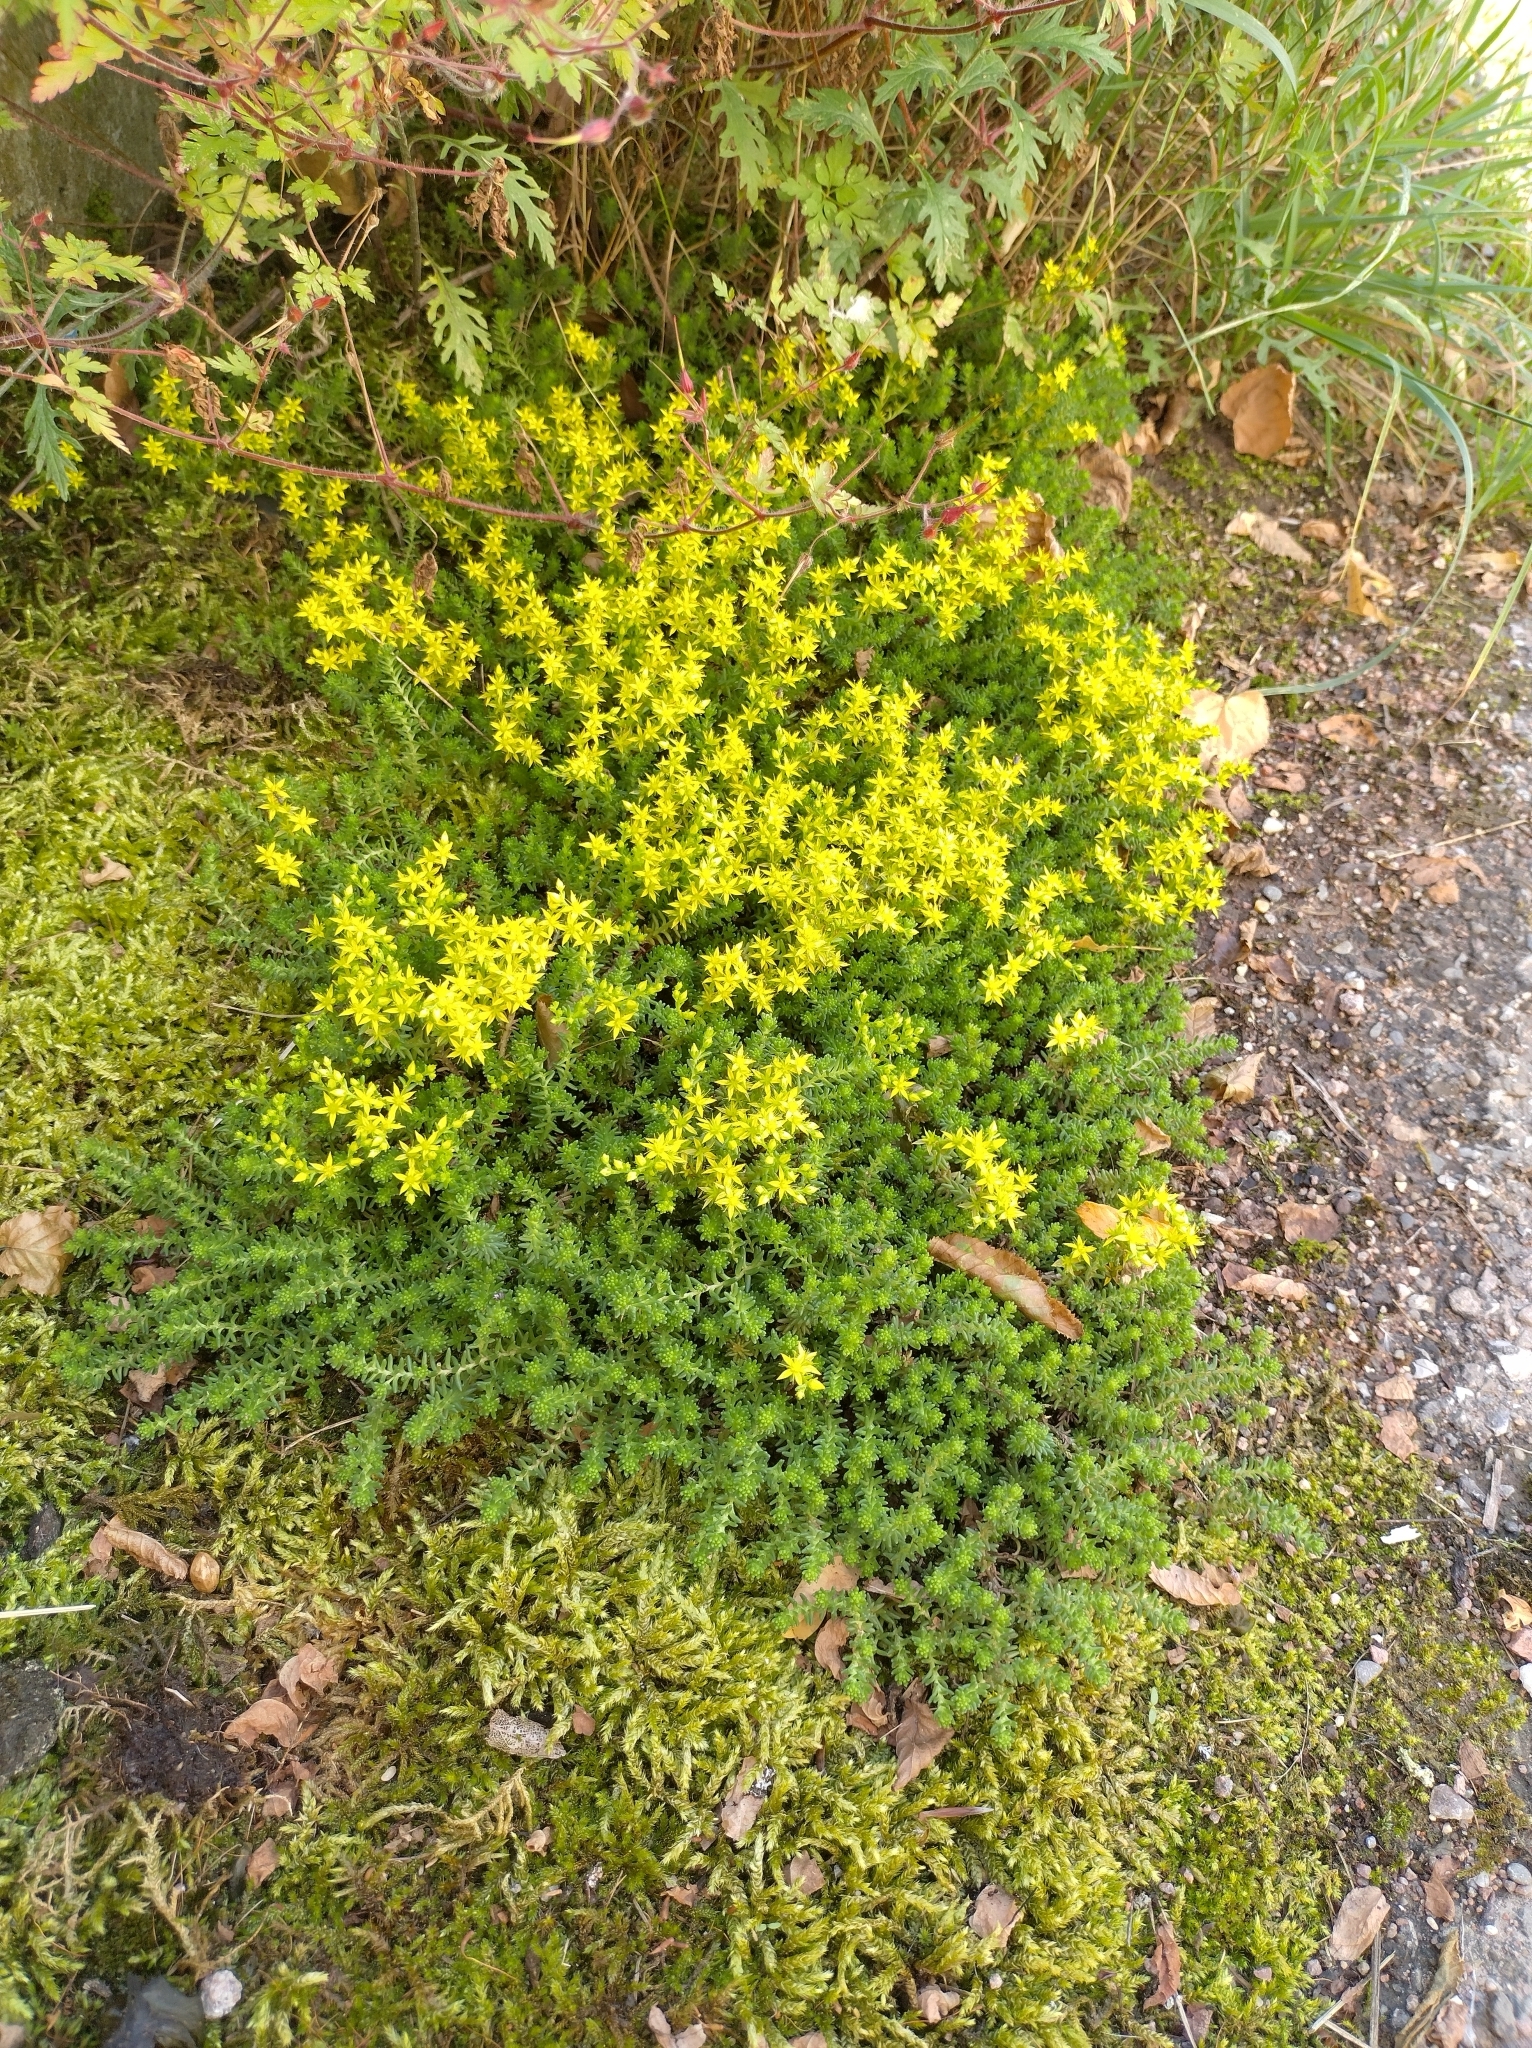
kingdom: Plantae
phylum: Tracheophyta
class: Magnoliopsida
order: Saxifragales
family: Crassulaceae
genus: Sedum
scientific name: Sedum sexangulare
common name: Tasteless stonecrop
